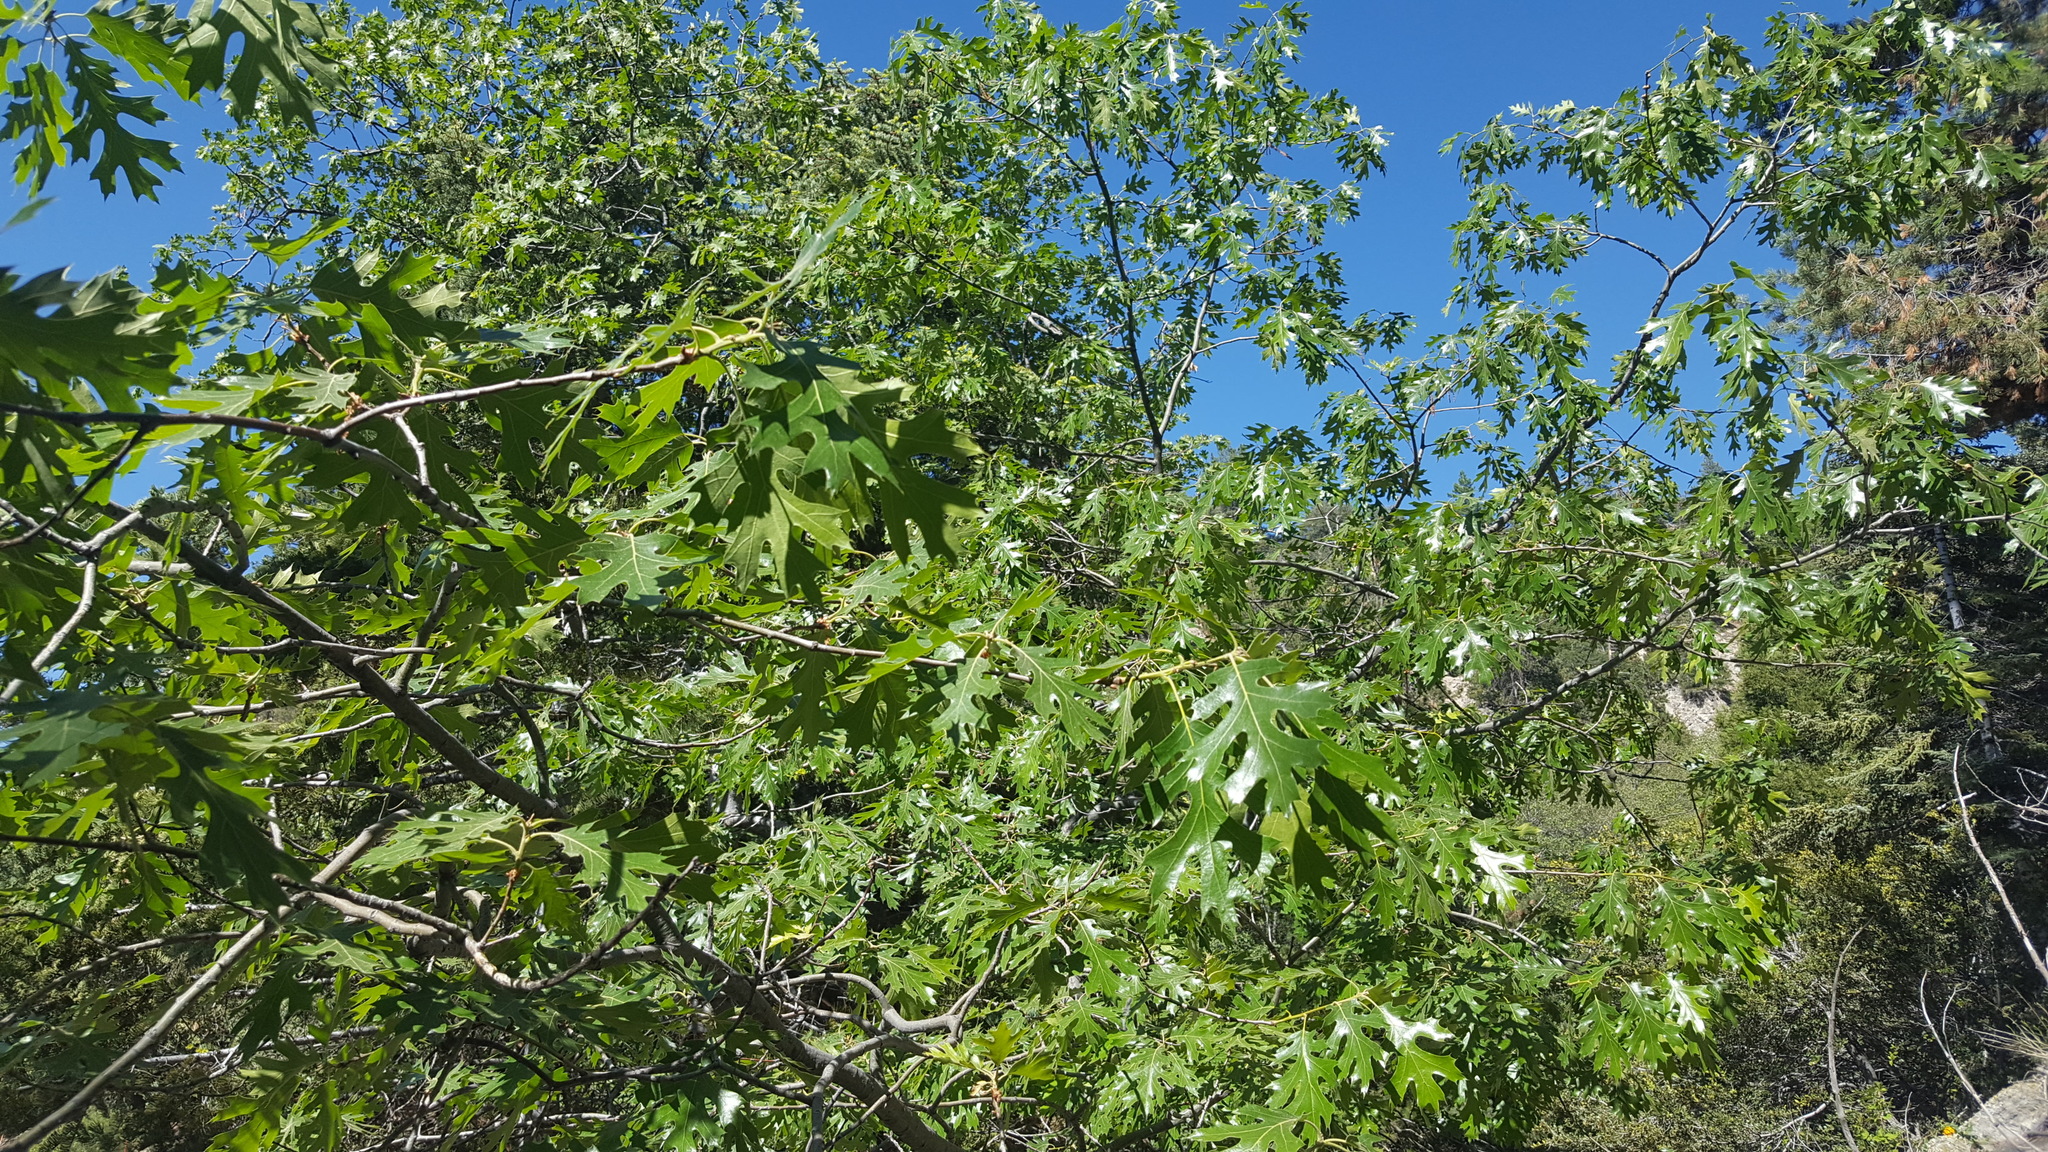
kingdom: Plantae
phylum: Tracheophyta
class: Magnoliopsida
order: Fagales
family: Fagaceae
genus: Quercus
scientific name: Quercus kelloggii
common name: California black oak
